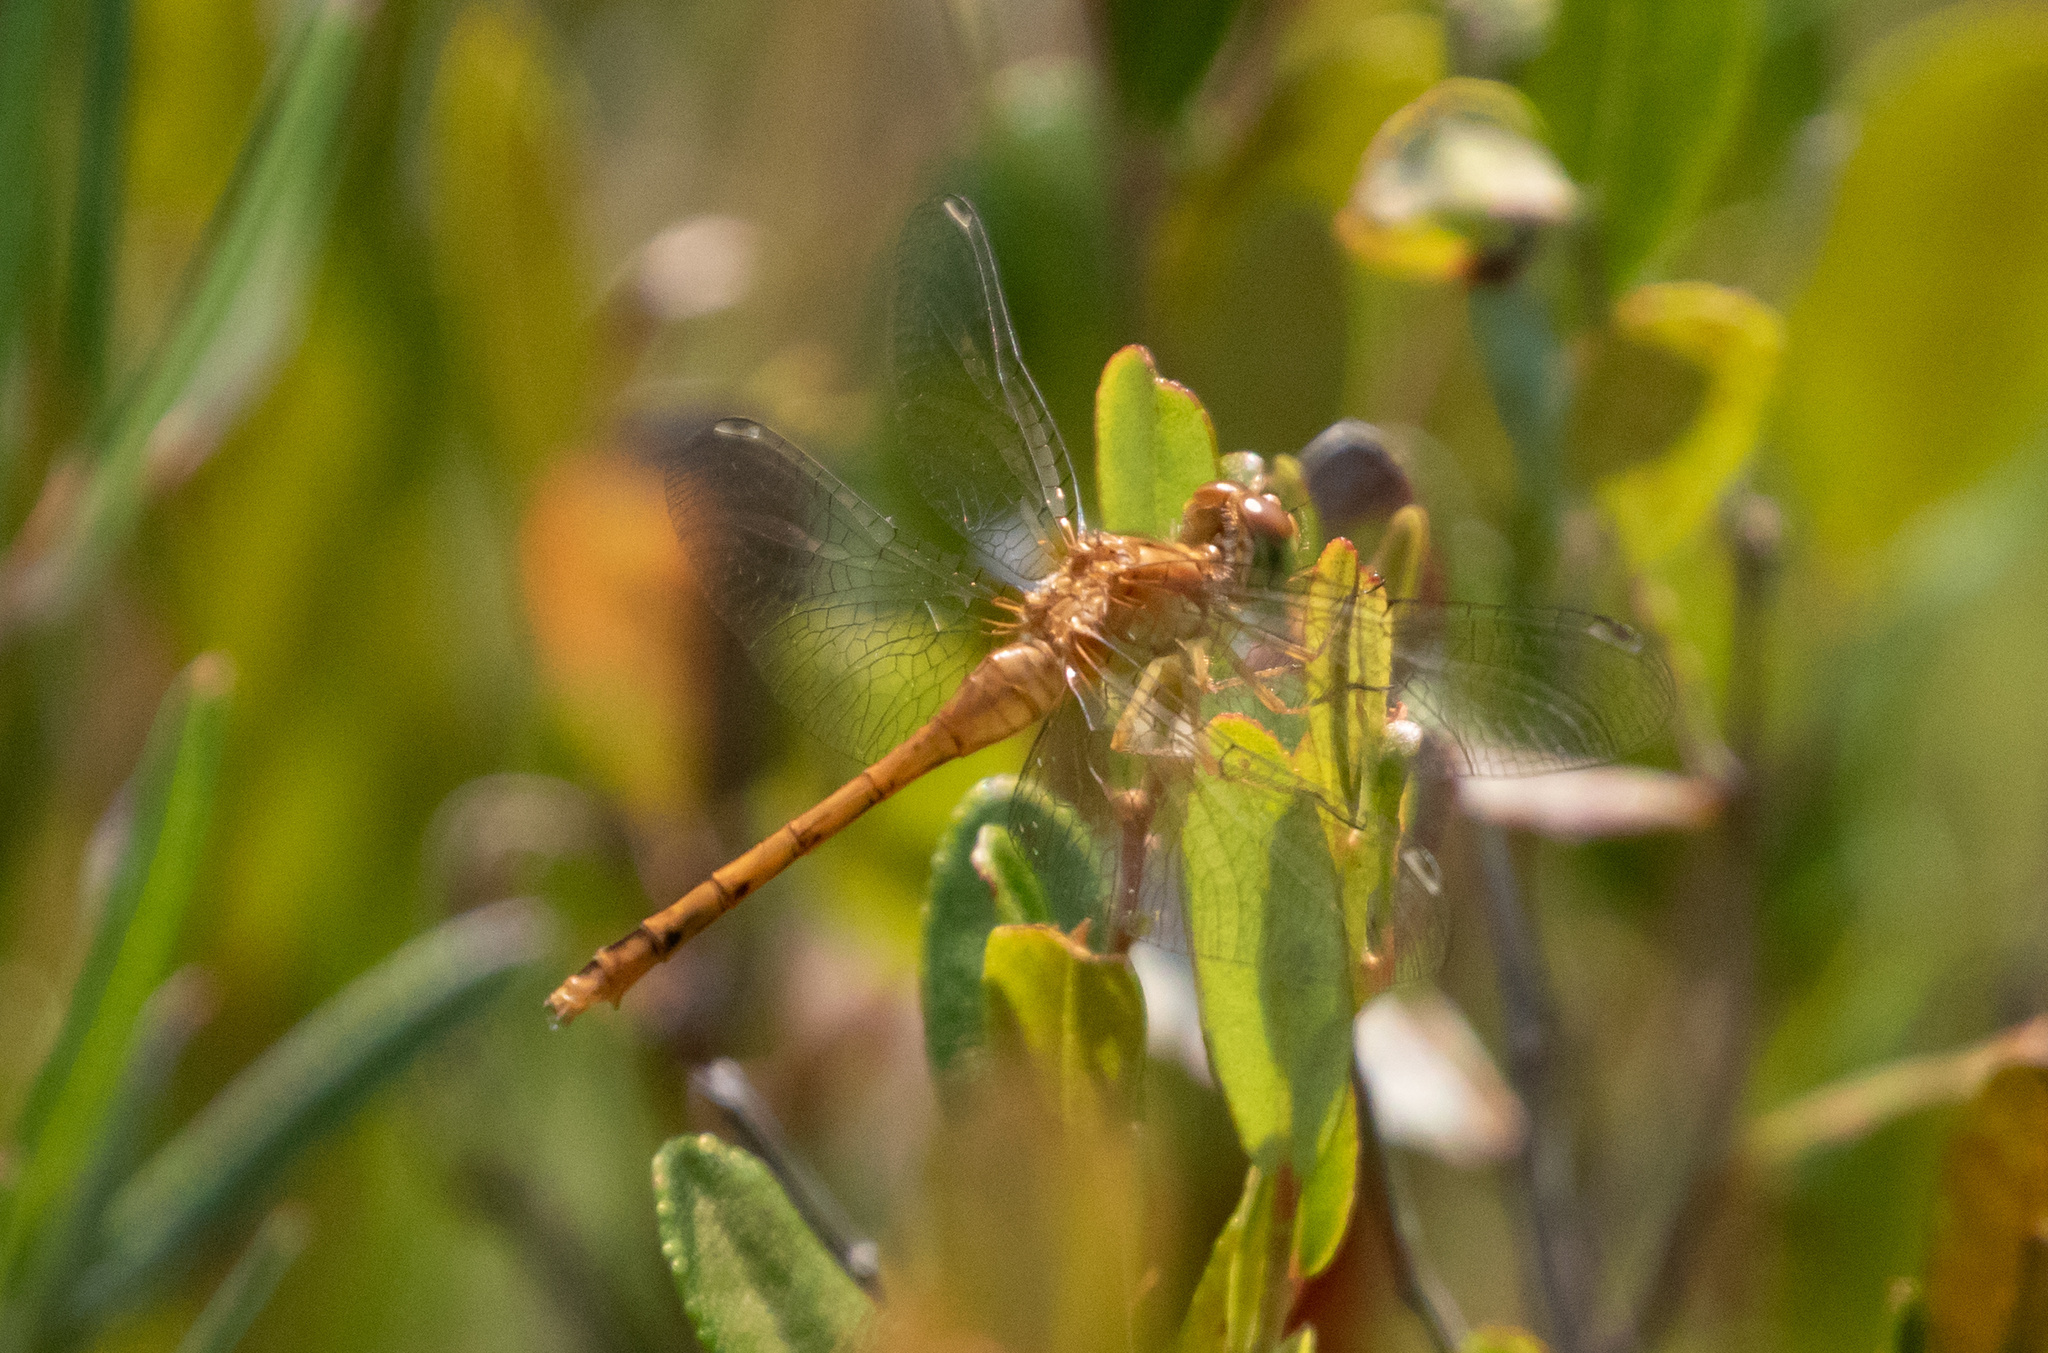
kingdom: Animalia
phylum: Arthropoda
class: Insecta
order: Odonata
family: Libellulidae
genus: Sympetrum
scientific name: Sympetrum vicinum
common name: Autumn meadowhawk
